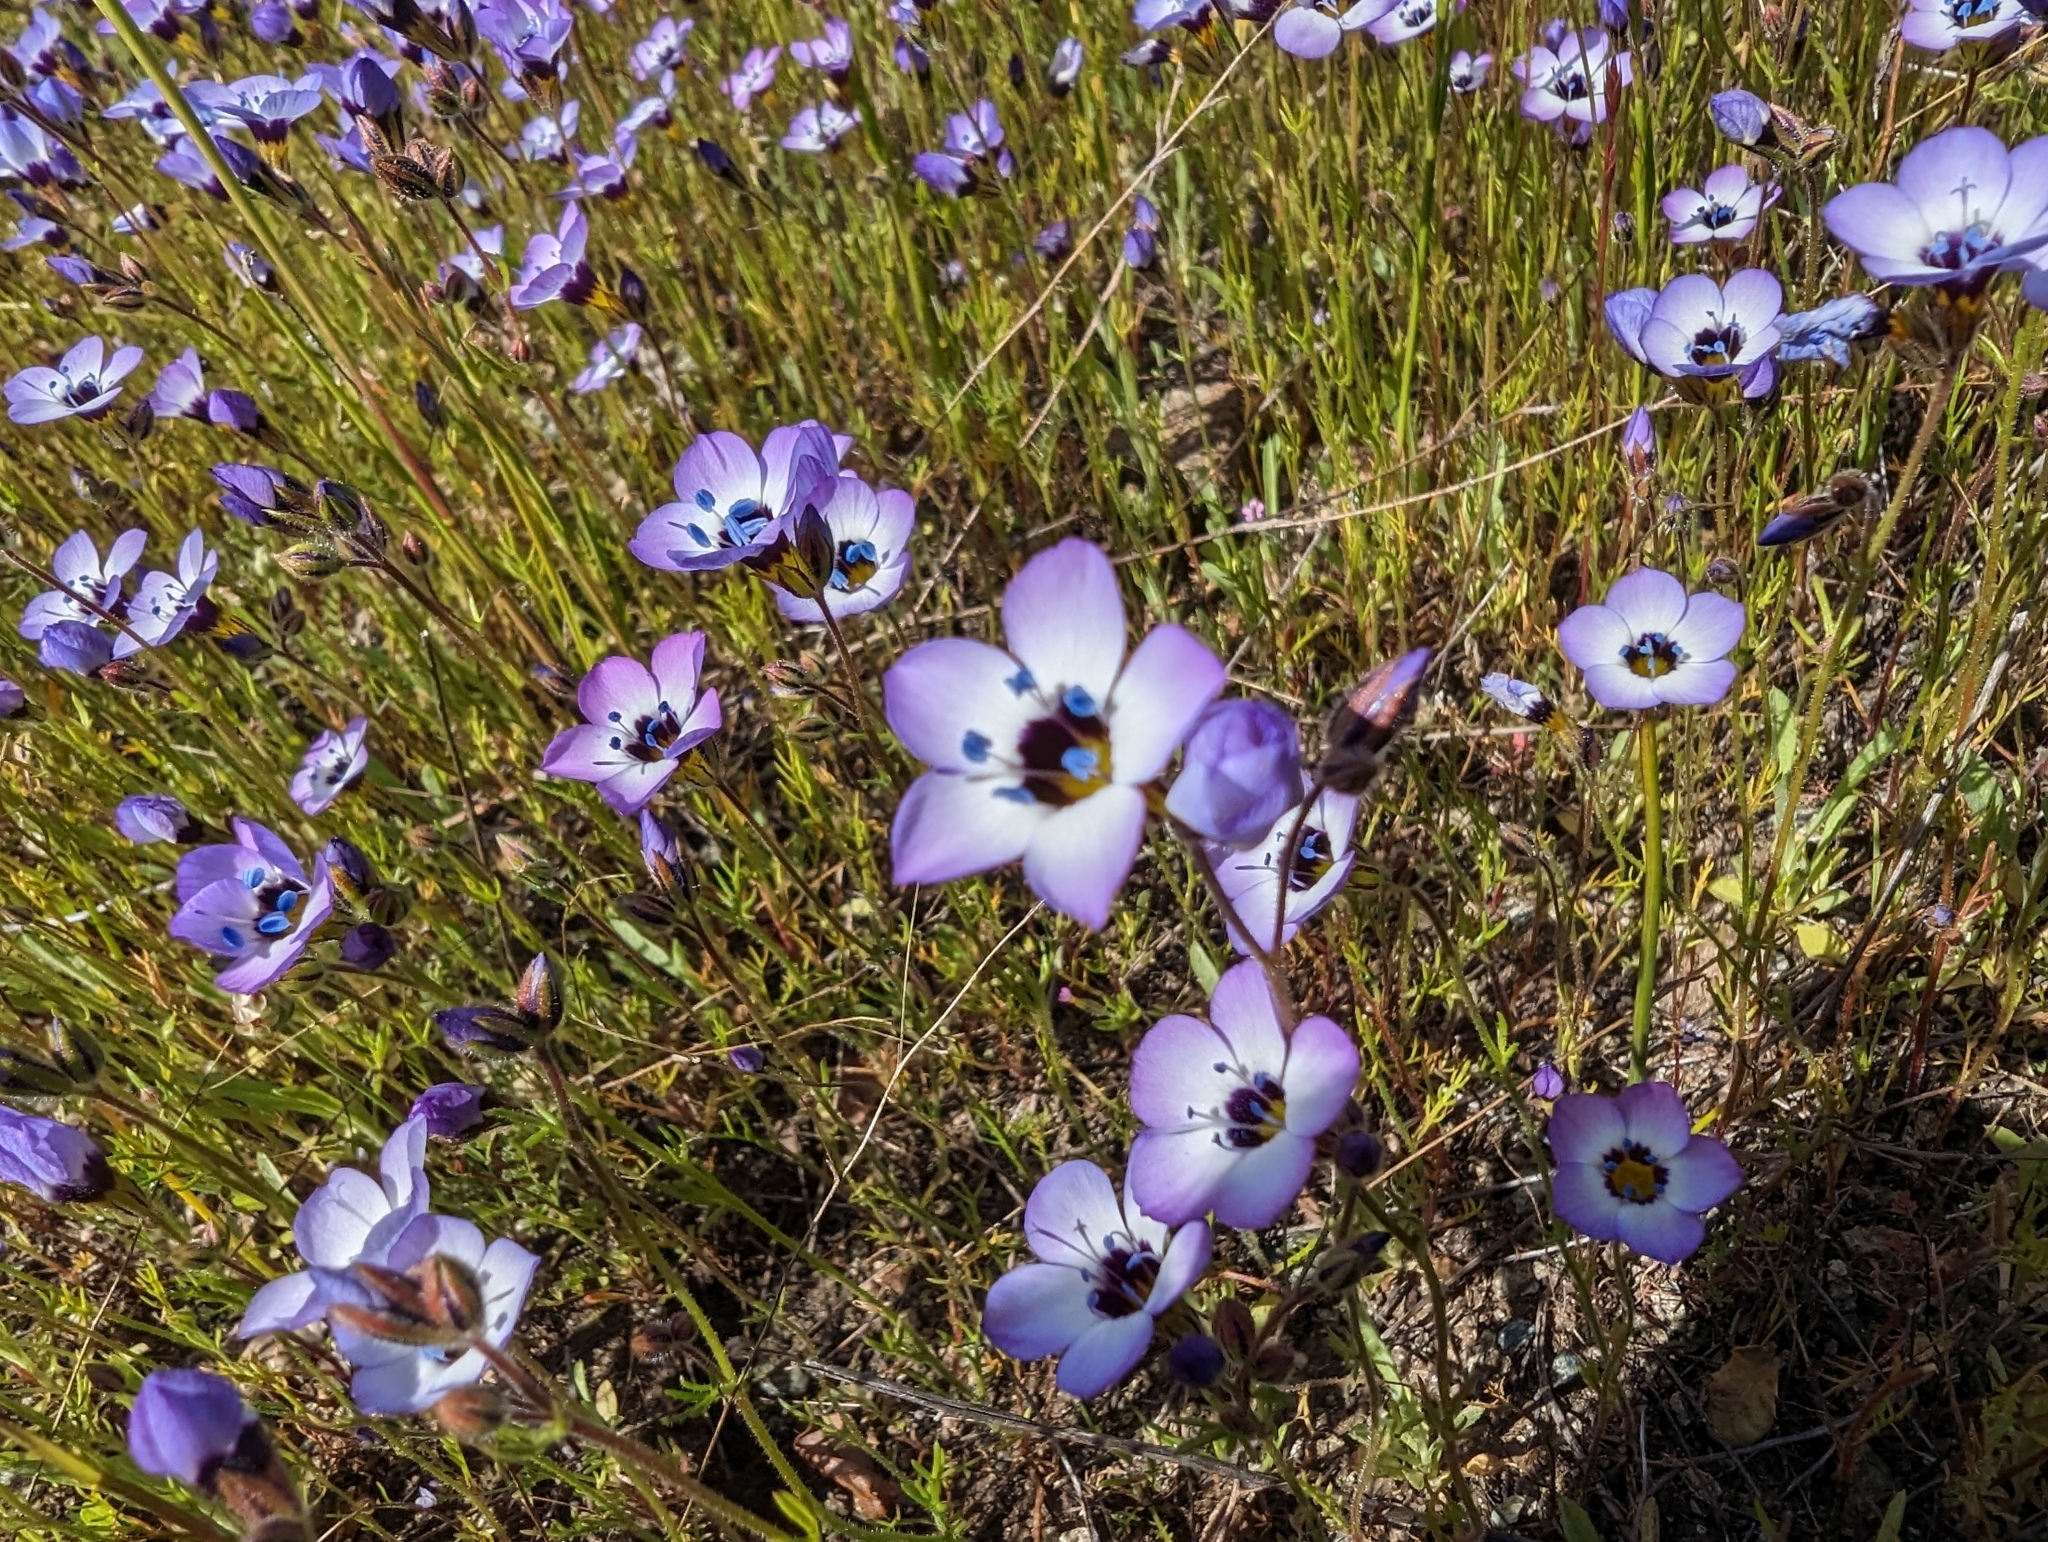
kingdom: Plantae
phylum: Tracheophyta
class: Magnoliopsida
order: Ericales
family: Polemoniaceae
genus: Gilia
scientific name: Gilia tricolor
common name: Bird's-eyes
